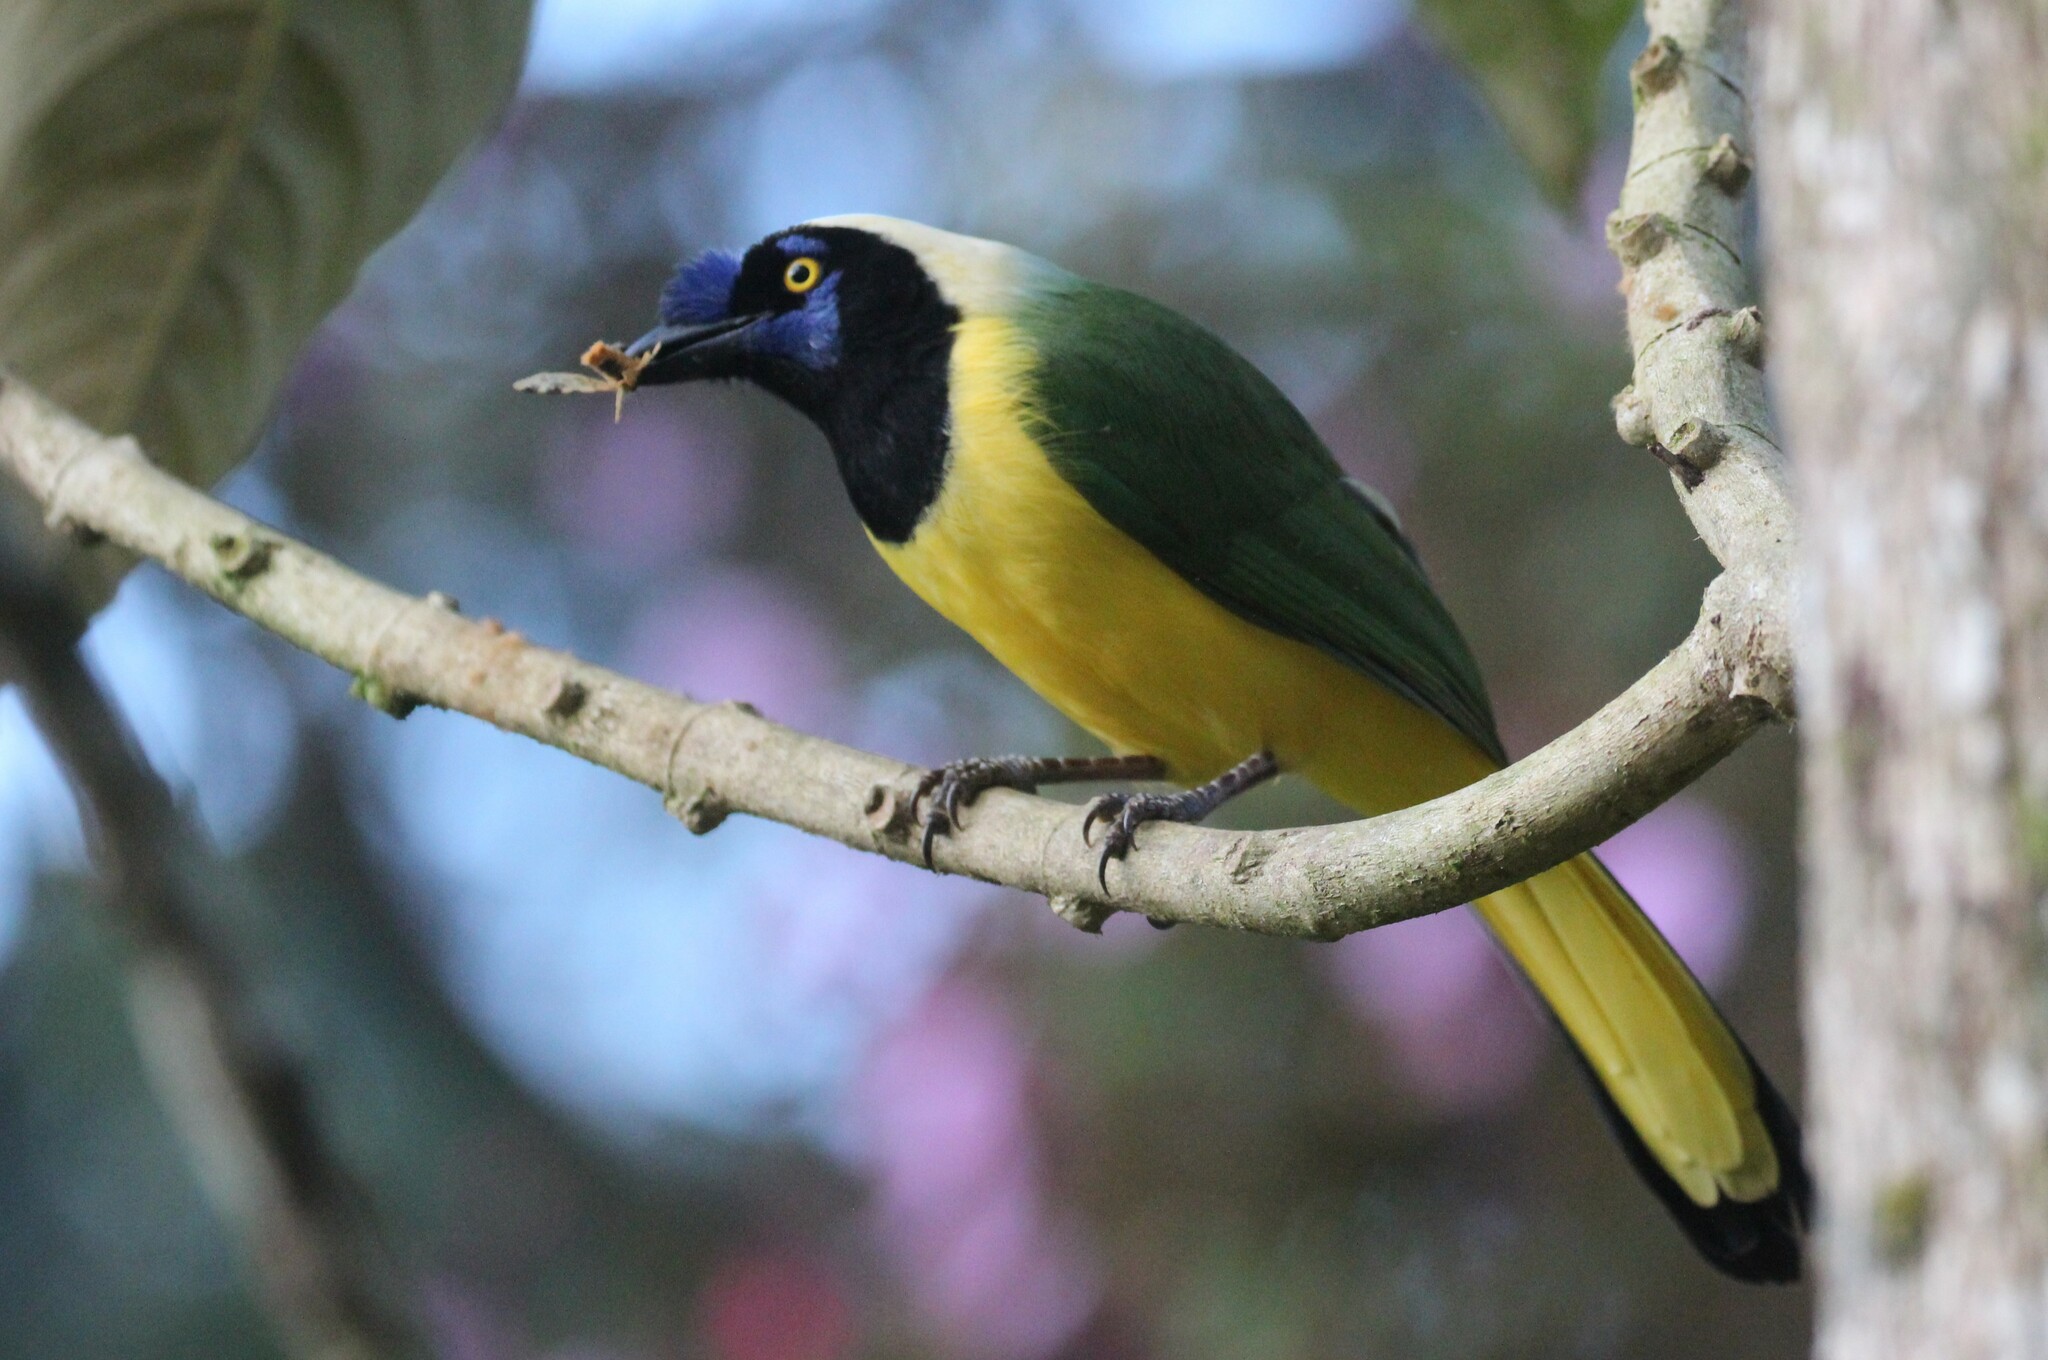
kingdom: Animalia
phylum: Chordata
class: Aves
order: Passeriformes
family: Corvidae
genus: Cyanocorax
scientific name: Cyanocorax yncas
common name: Green jay
